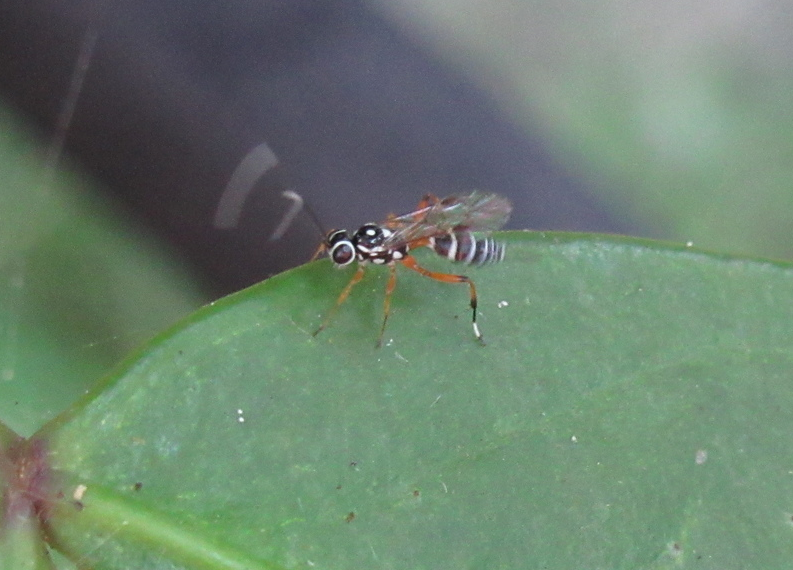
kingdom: Animalia
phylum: Arthropoda
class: Insecta
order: Hymenoptera
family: Ichneumonidae
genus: Glabridorsum
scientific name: Glabridorsum stokesii
